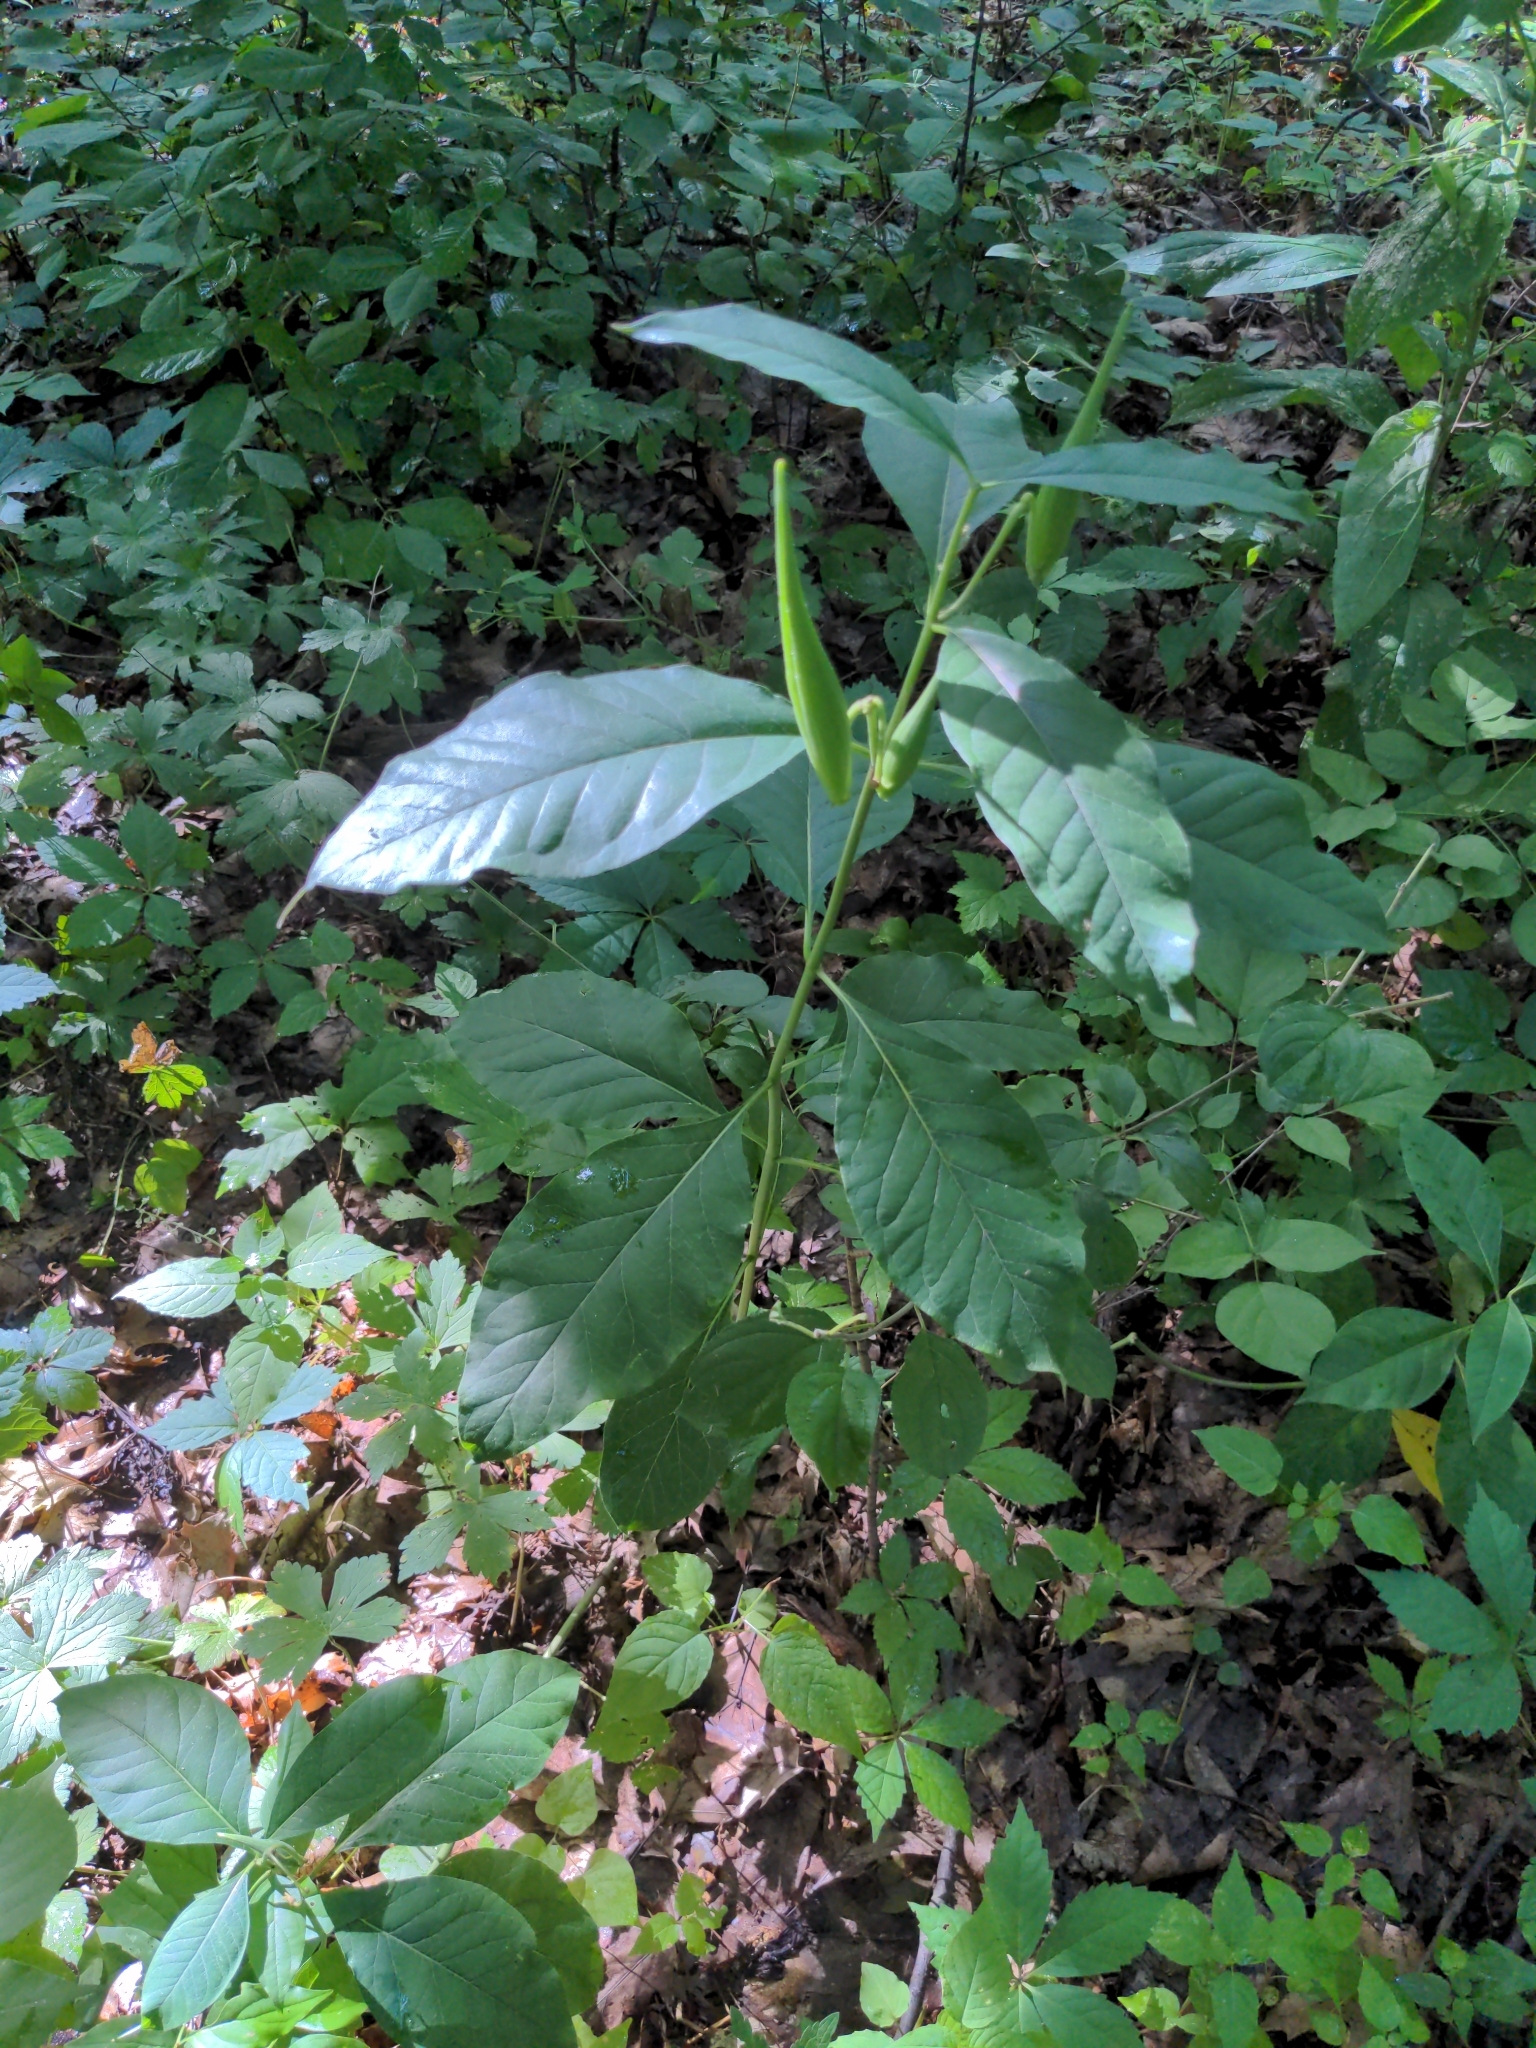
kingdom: Plantae
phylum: Tracheophyta
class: Magnoliopsida
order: Gentianales
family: Apocynaceae
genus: Asclepias
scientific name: Asclepias exaltata
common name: Poke milkweed
